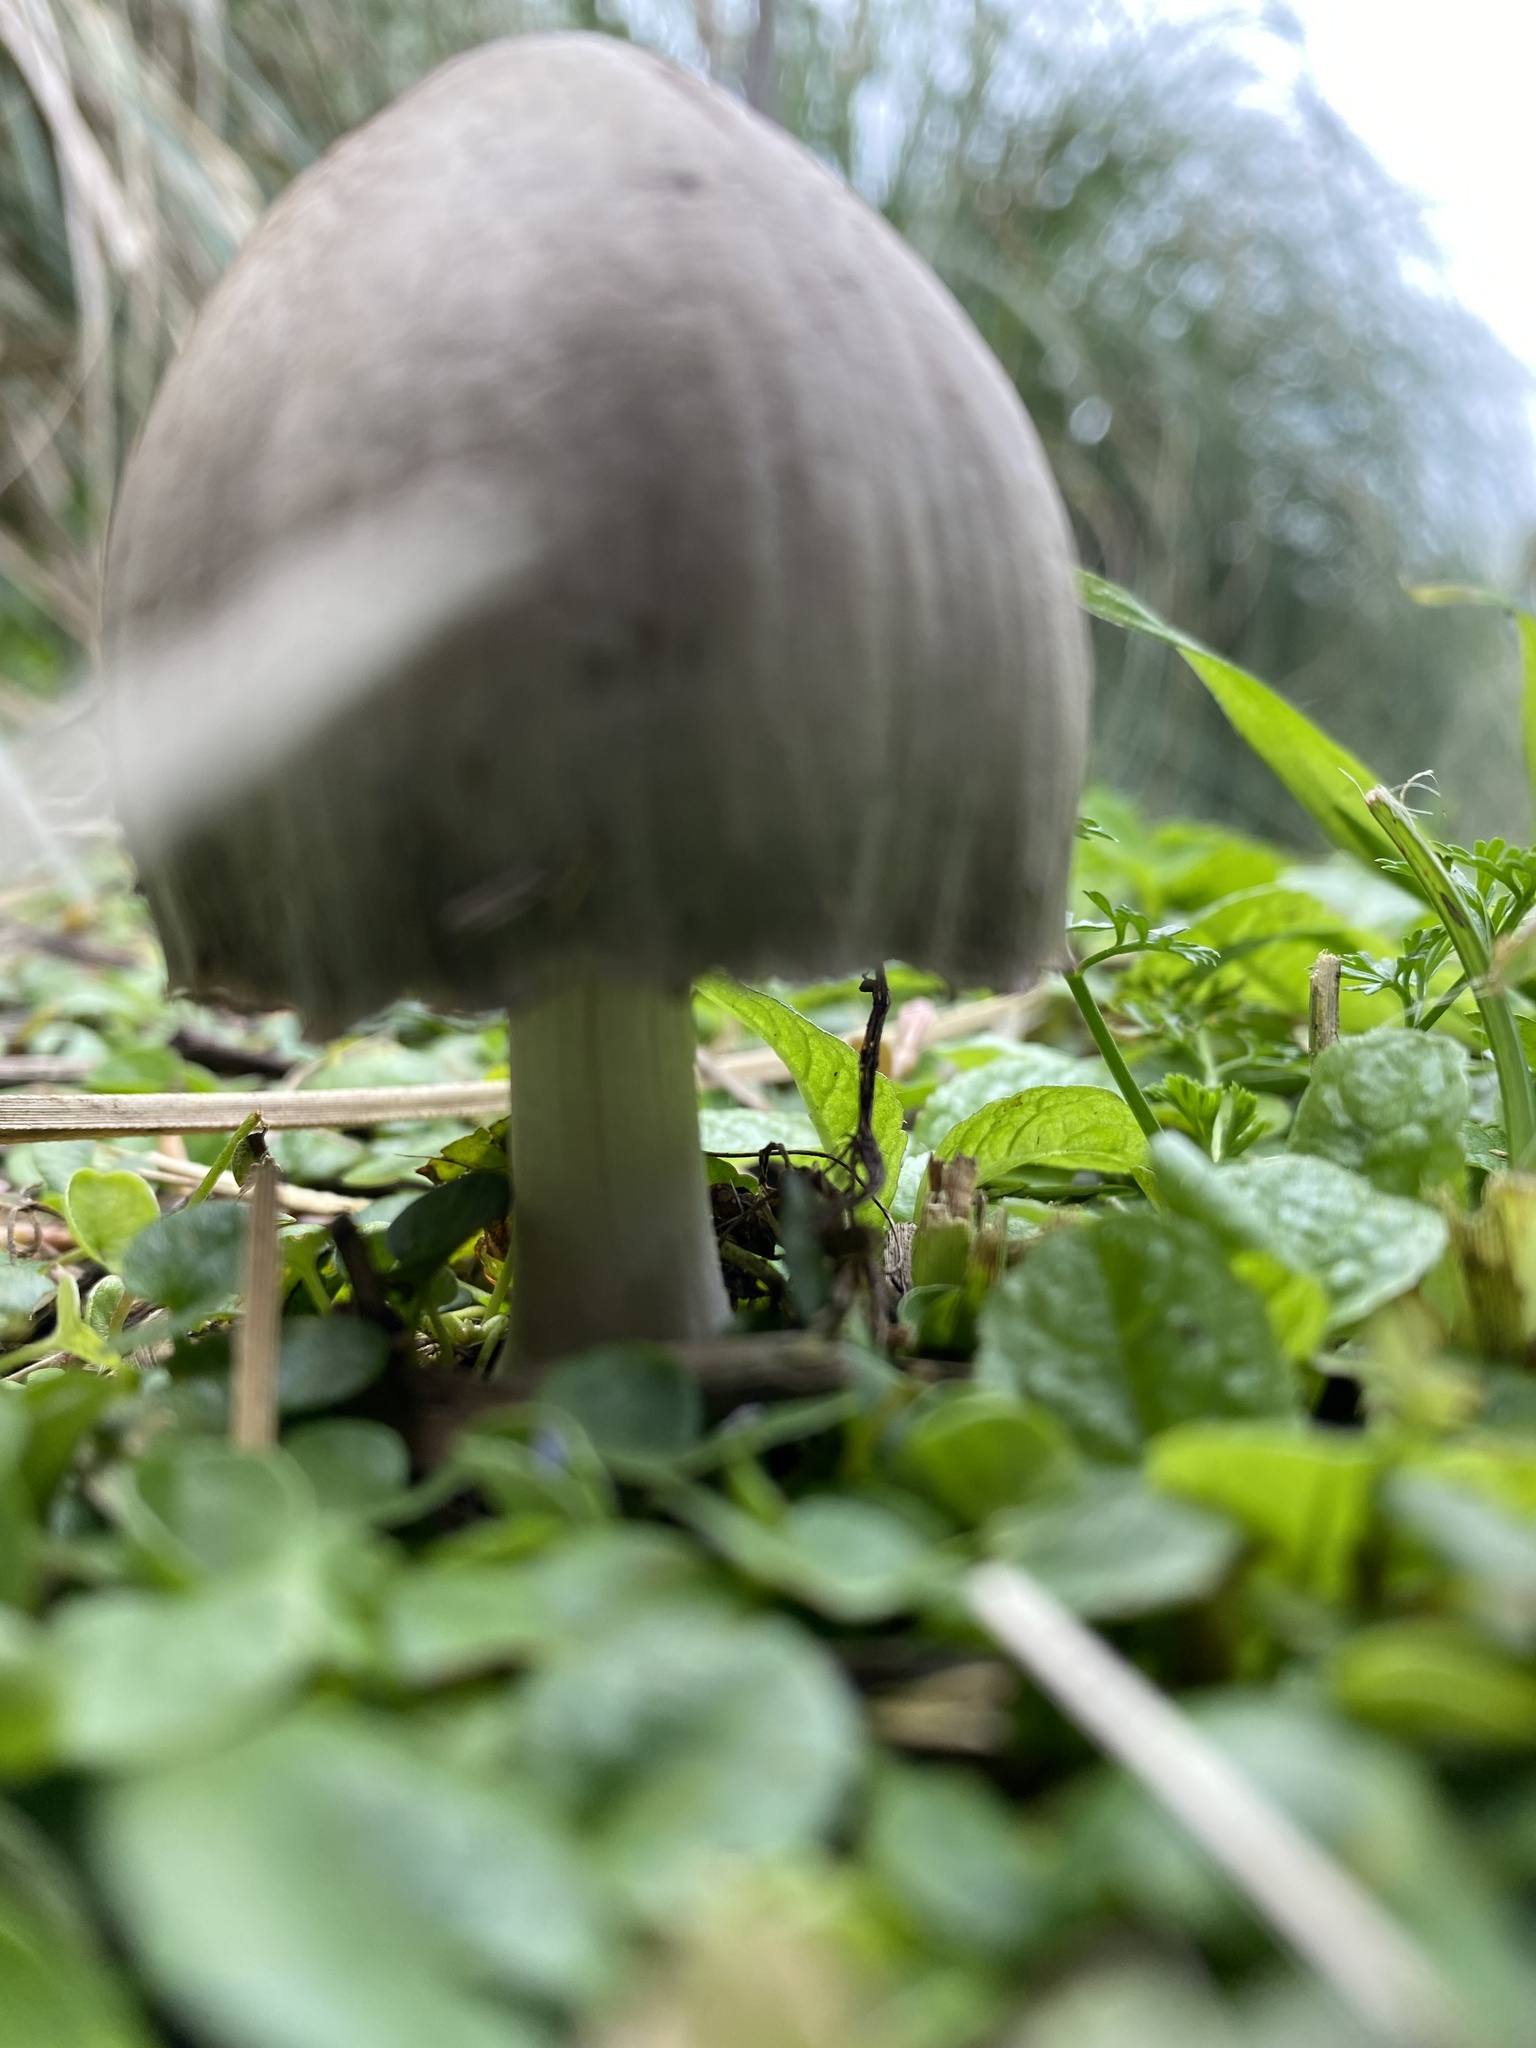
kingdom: Fungi
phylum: Basidiomycota
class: Agaricomycetes
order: Agaricales
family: Psathyrellaceae
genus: Coprinopsis
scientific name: Coprinopsis atramentaria
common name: Common ink-cap
